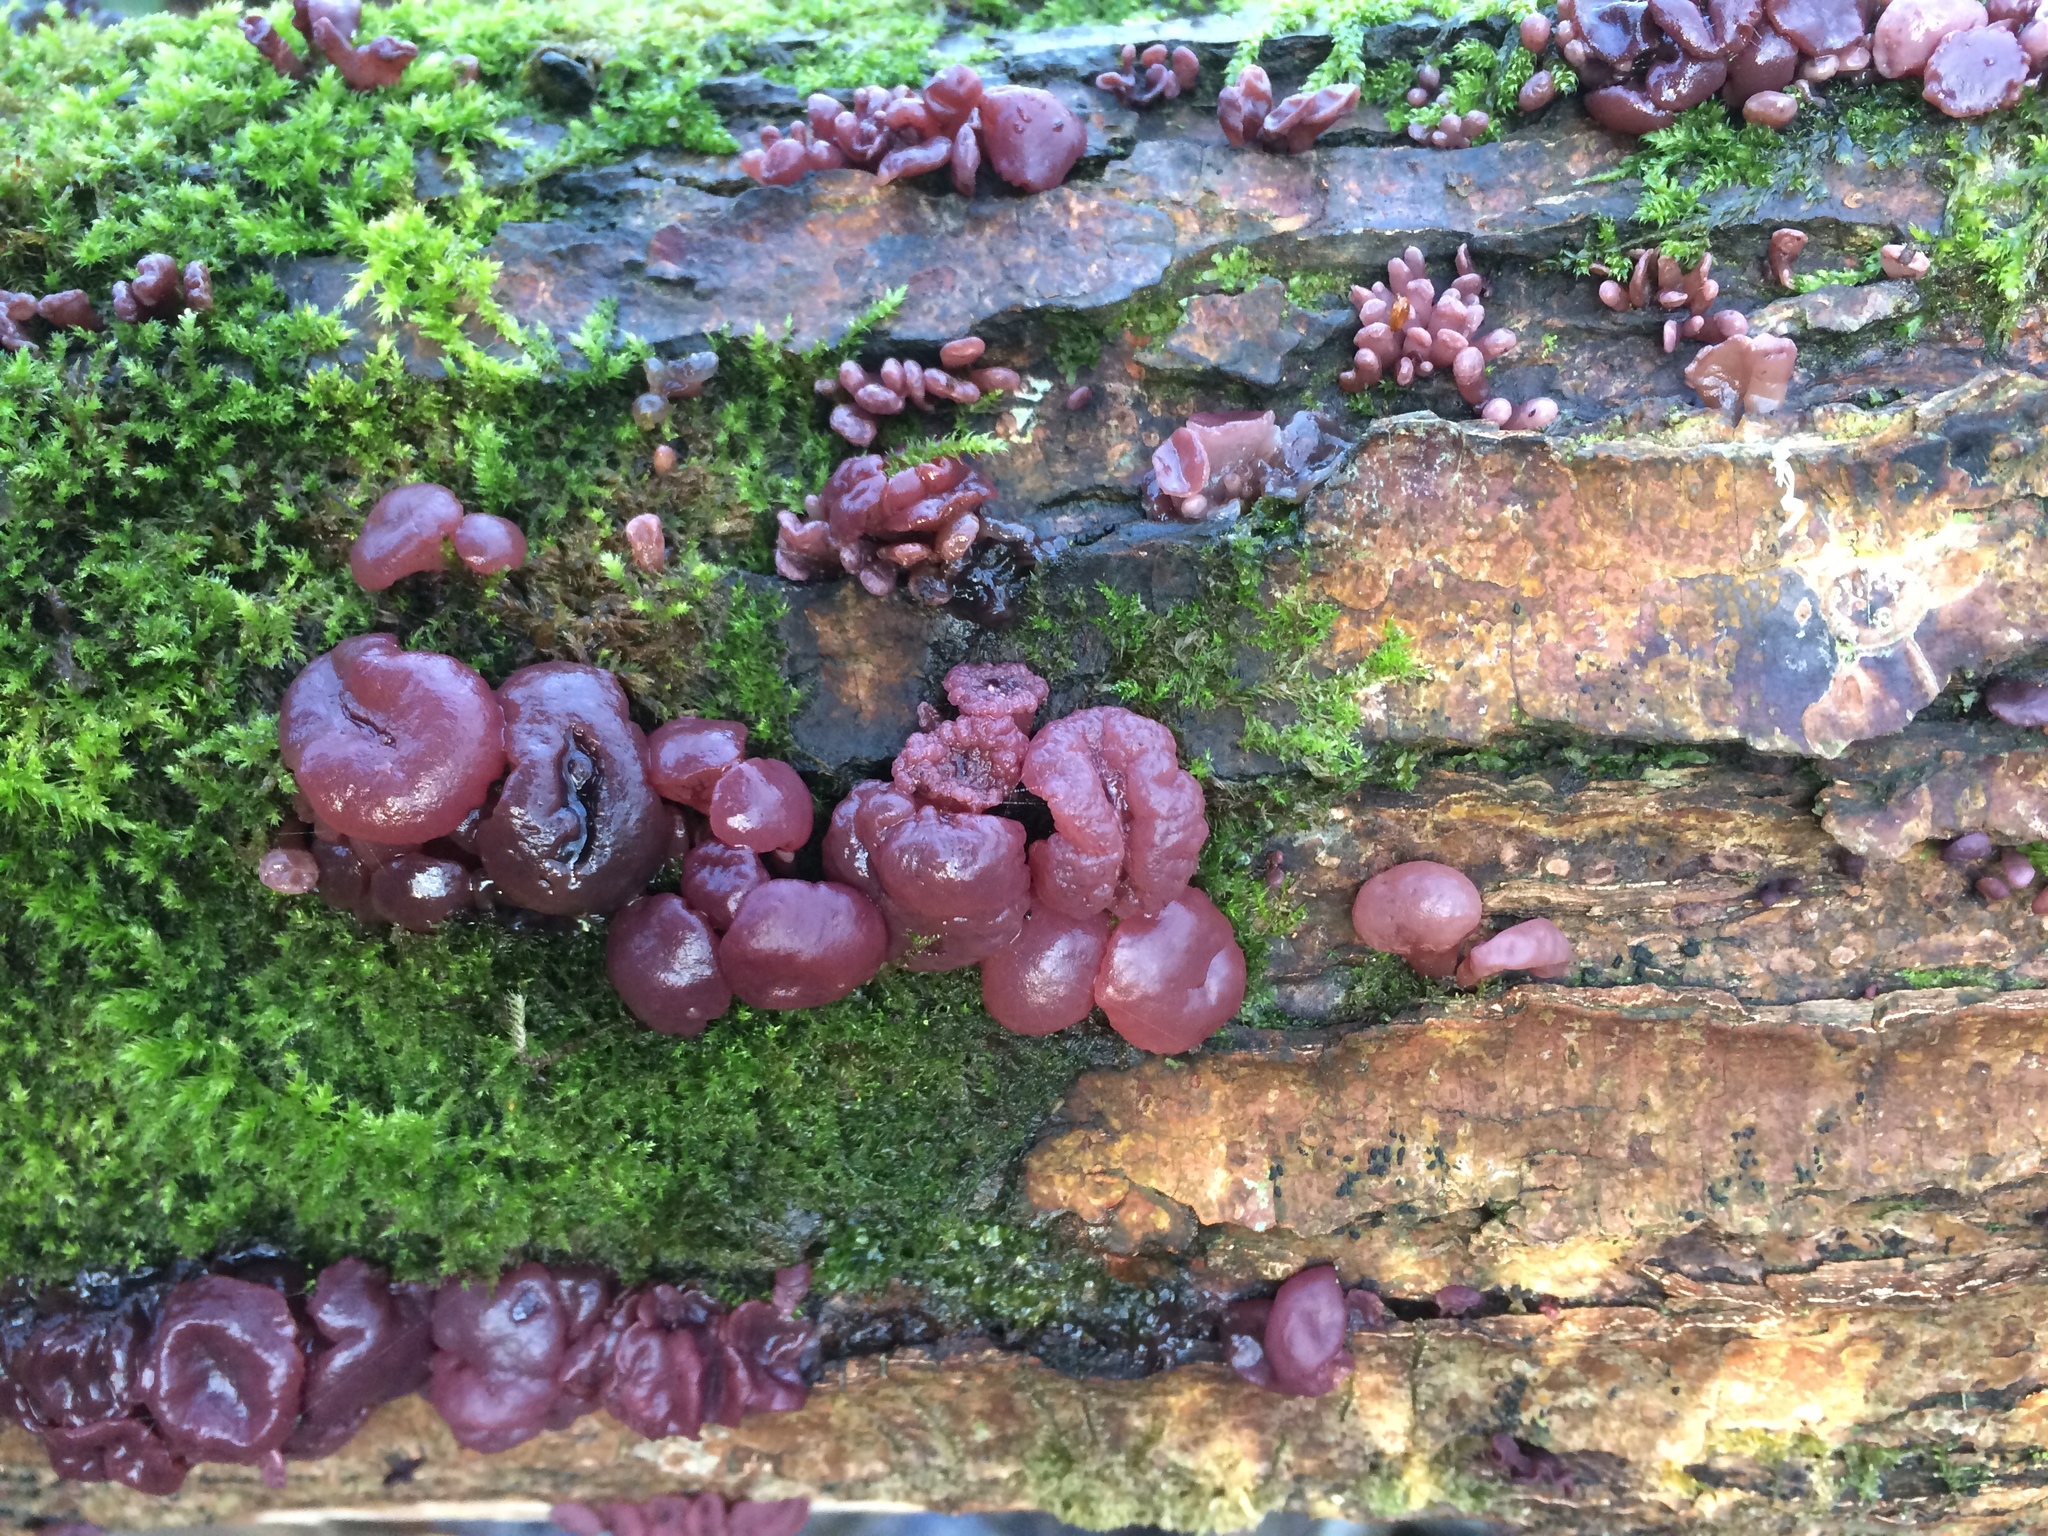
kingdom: Fungi
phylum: Ascomycota
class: Leotiomycetes
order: Helotiales
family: Gelatinodiscaceae
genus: Ascocoryne
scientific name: Ascocoryne sarcoides
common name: Purple jellydisc
